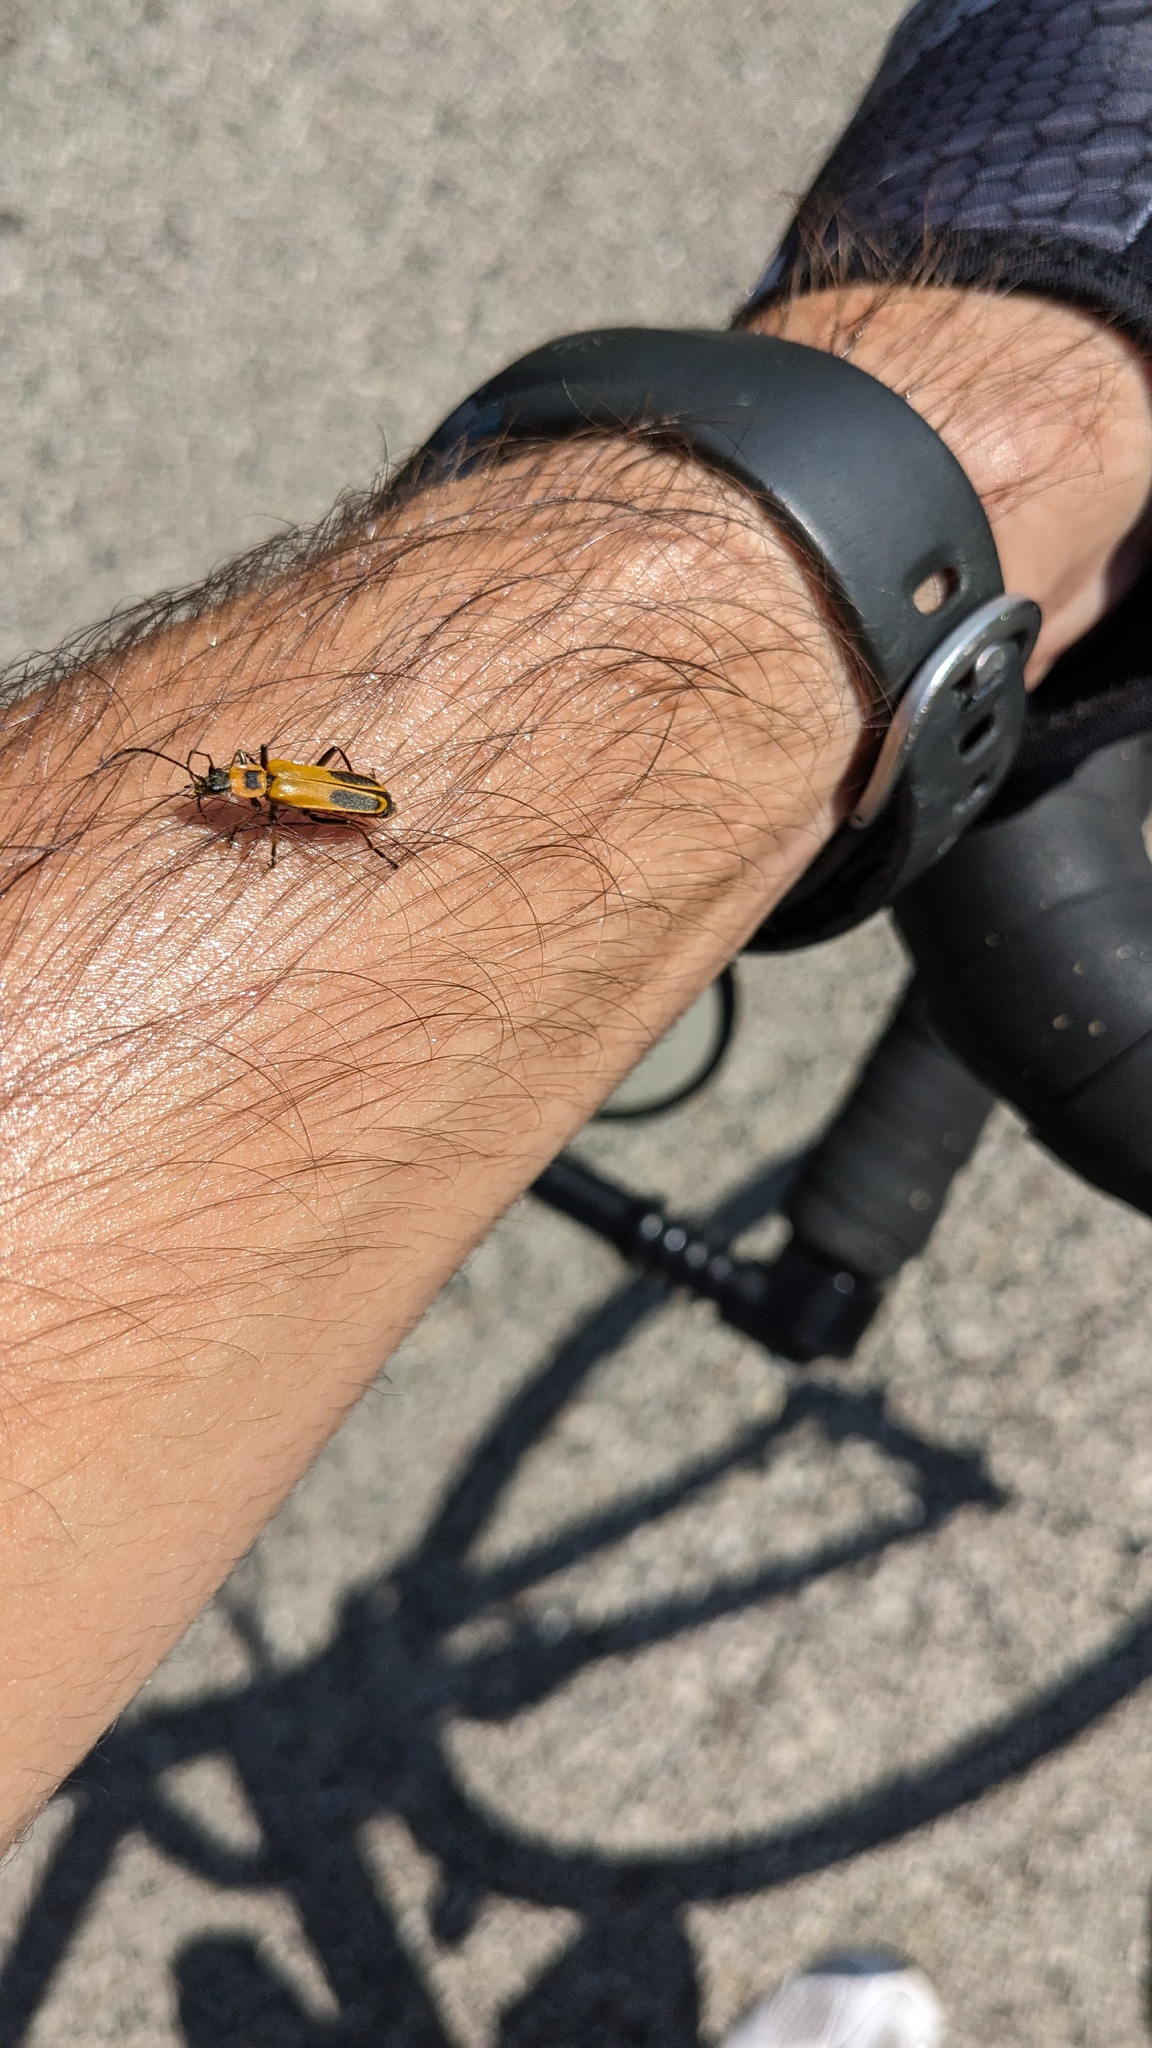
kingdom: Animalia
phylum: Arthropoda
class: Insecta
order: Coleoptera
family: Cantharidae
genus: Chauliognathus
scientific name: Chauliognathus pensylvanicus
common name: Goldenrod soldier beetle
